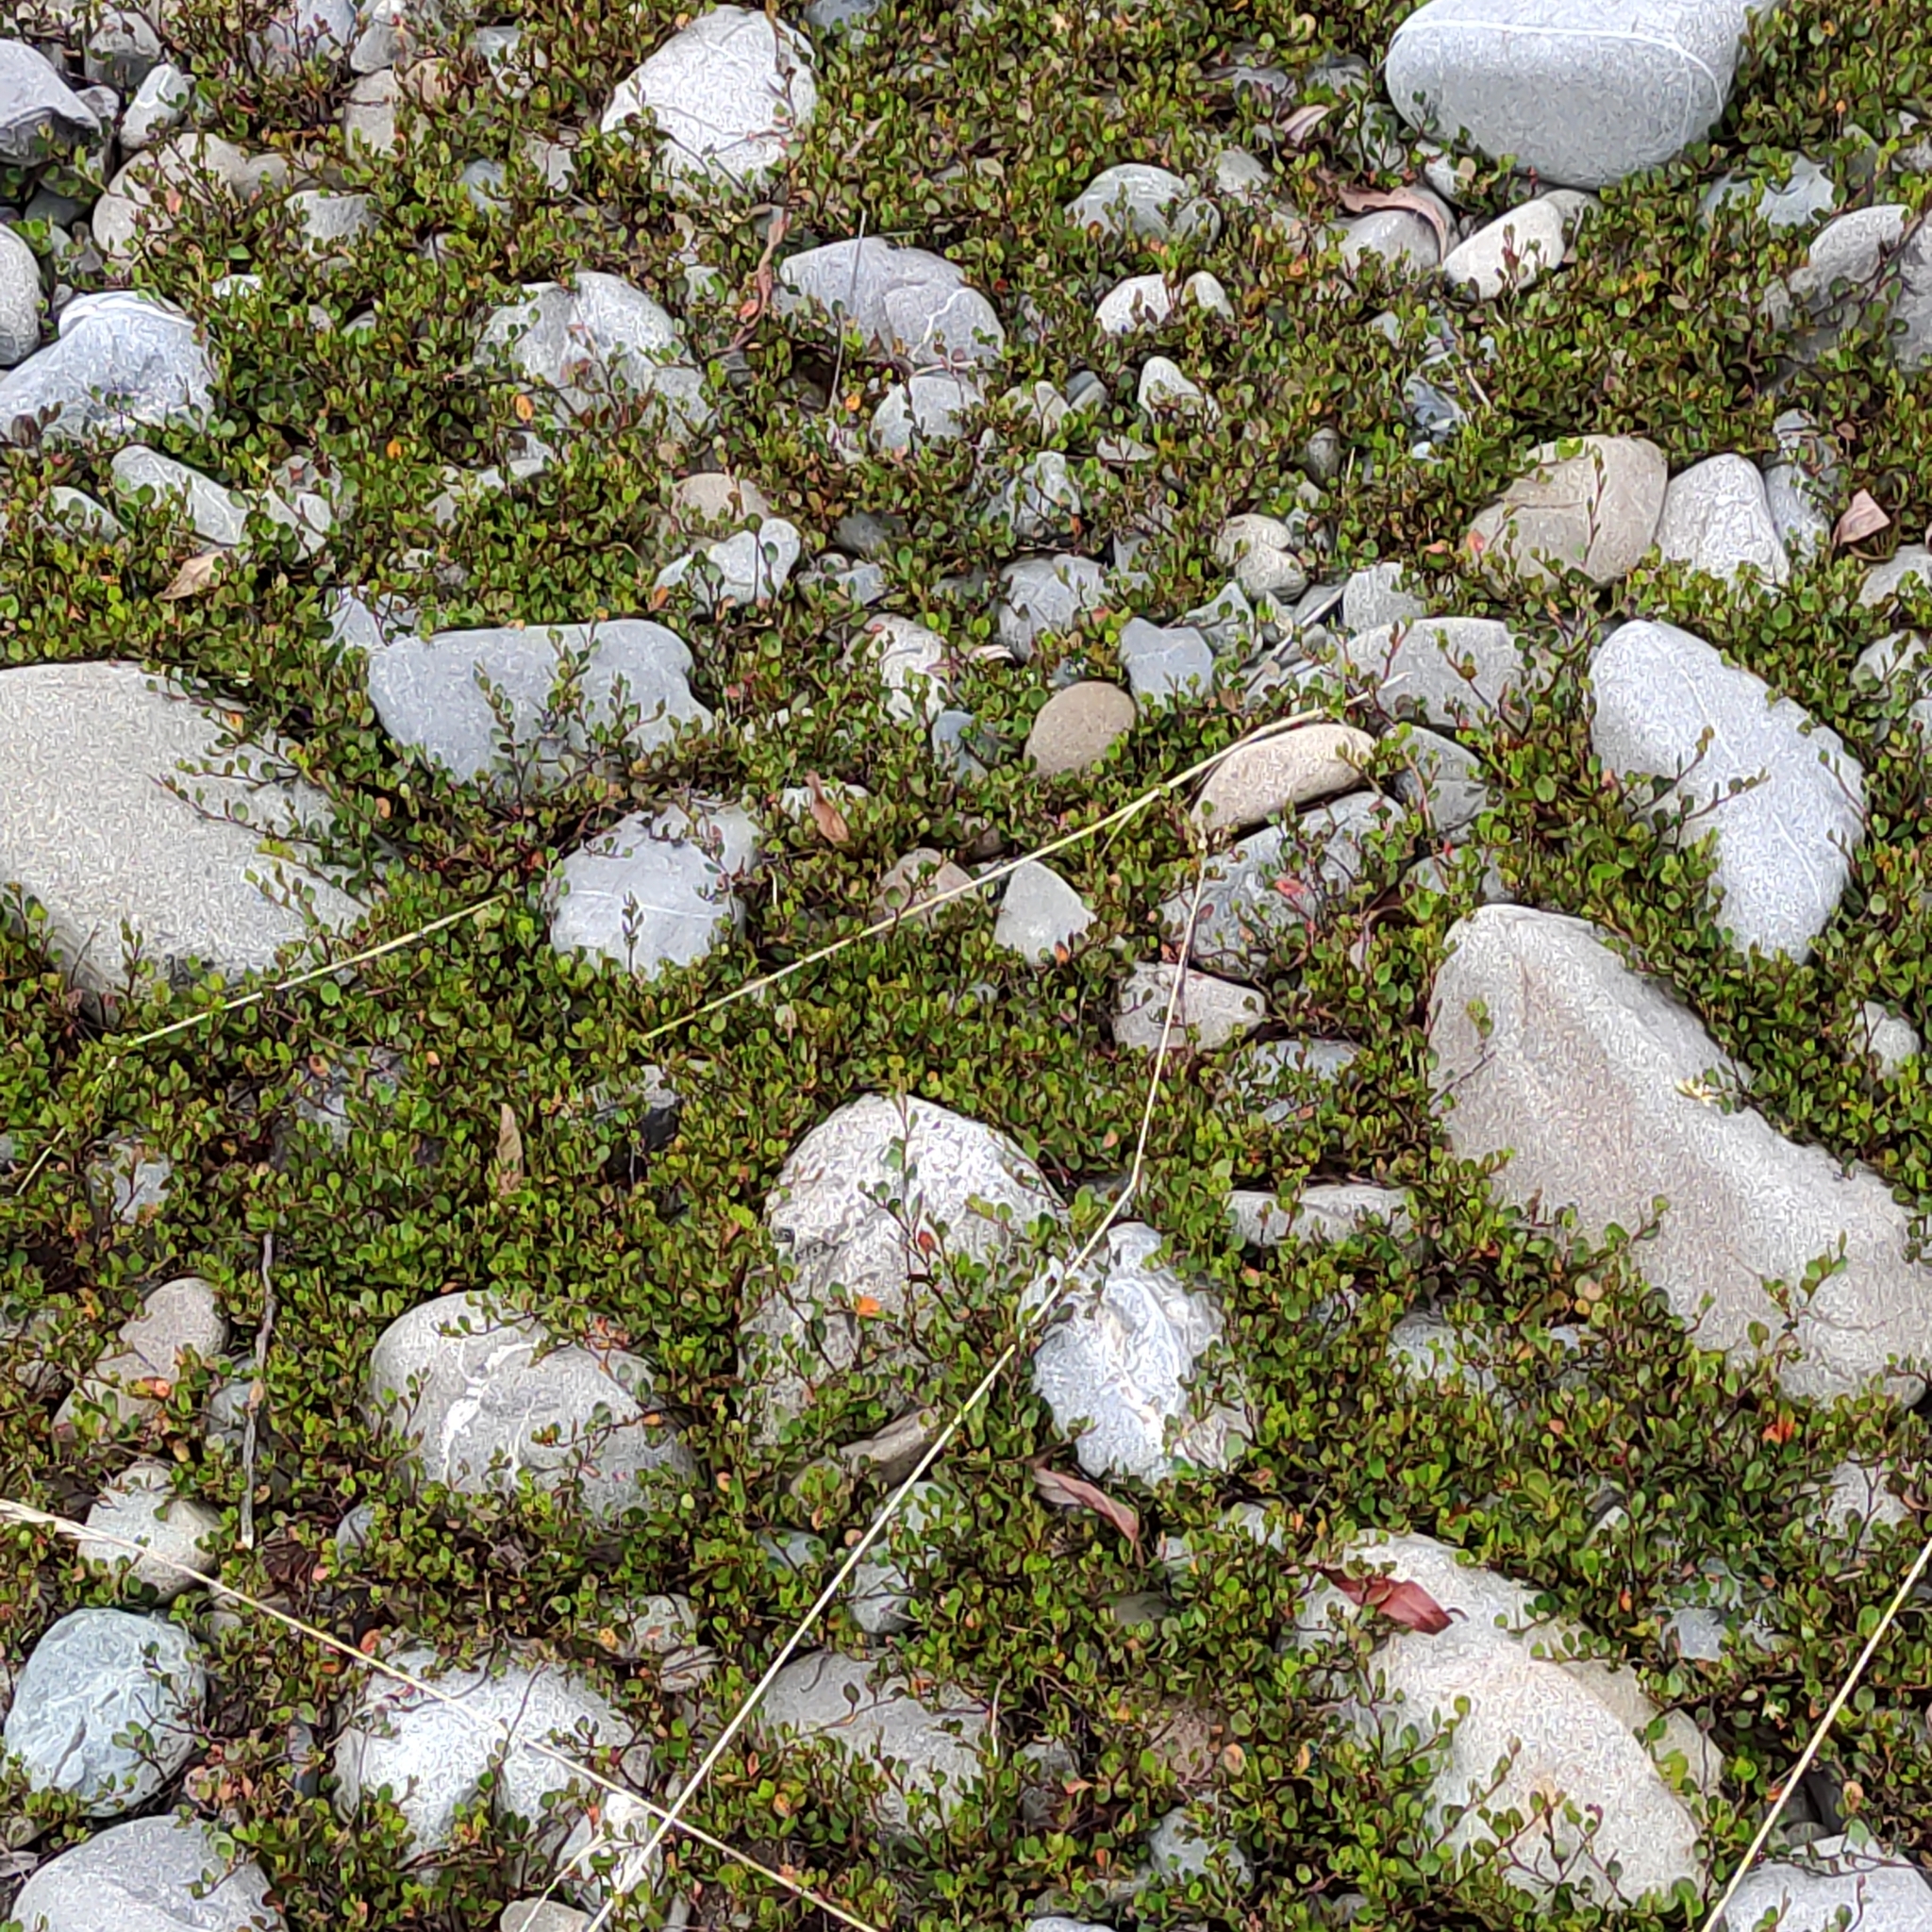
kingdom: Plantae
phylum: Tracheophyta
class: Magnoliopsida
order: Caryophyllales
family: Polygonaceae
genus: Muehlenbeckia
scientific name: Muehlenbeckia axillaris
